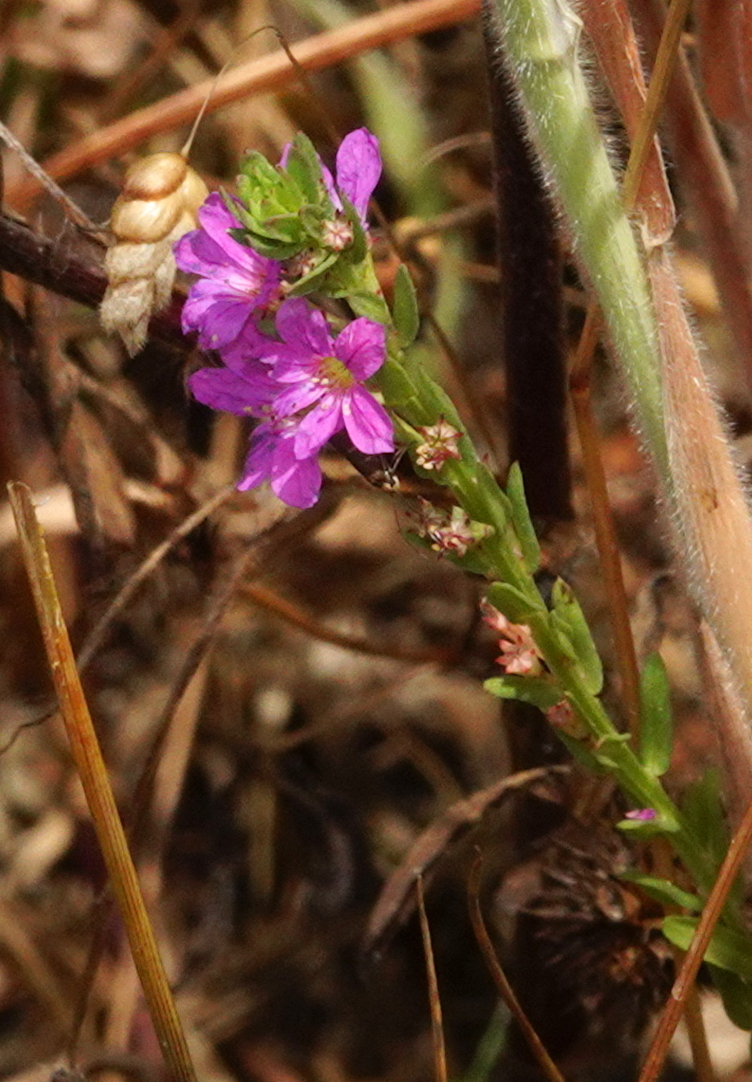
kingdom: Plantae
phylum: Tracheophyta
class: Magnoliopsida
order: Myrtales
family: Lythraceae
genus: Lythrum
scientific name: Lythrum junceum
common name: False grass-poly
